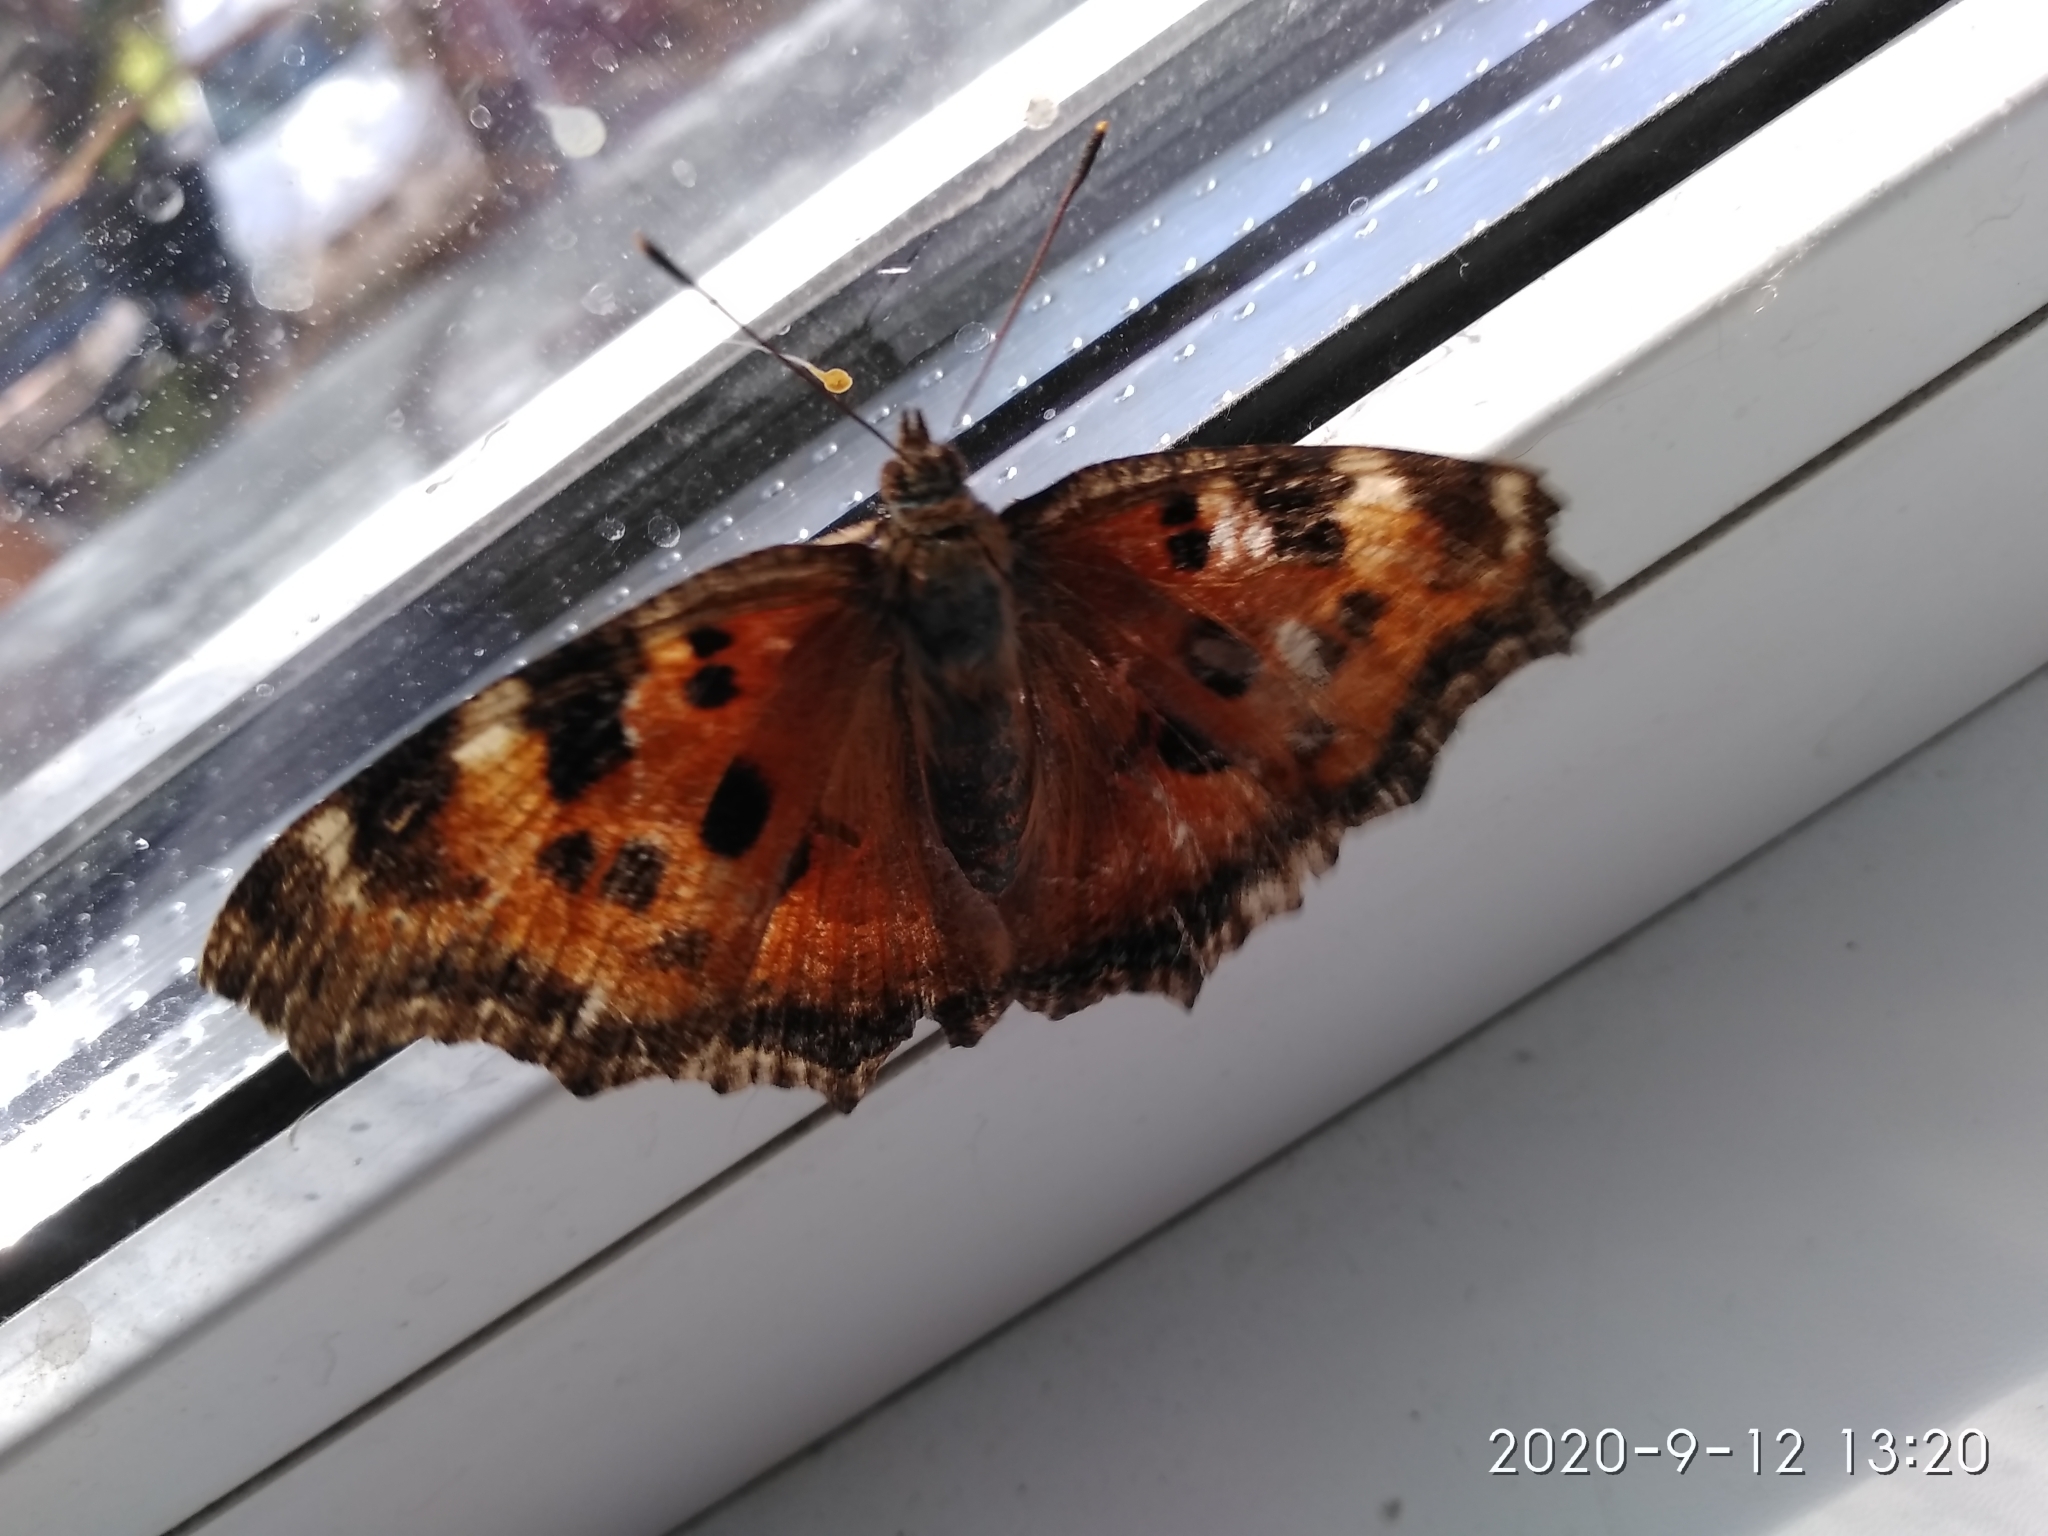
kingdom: Animalia
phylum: Arthropoda
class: Insecta
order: Lepidoptera
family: Nymphalidae
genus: Nymphalis
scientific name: Nymphalis xanthomelas
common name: Scarce tortoiseshell
